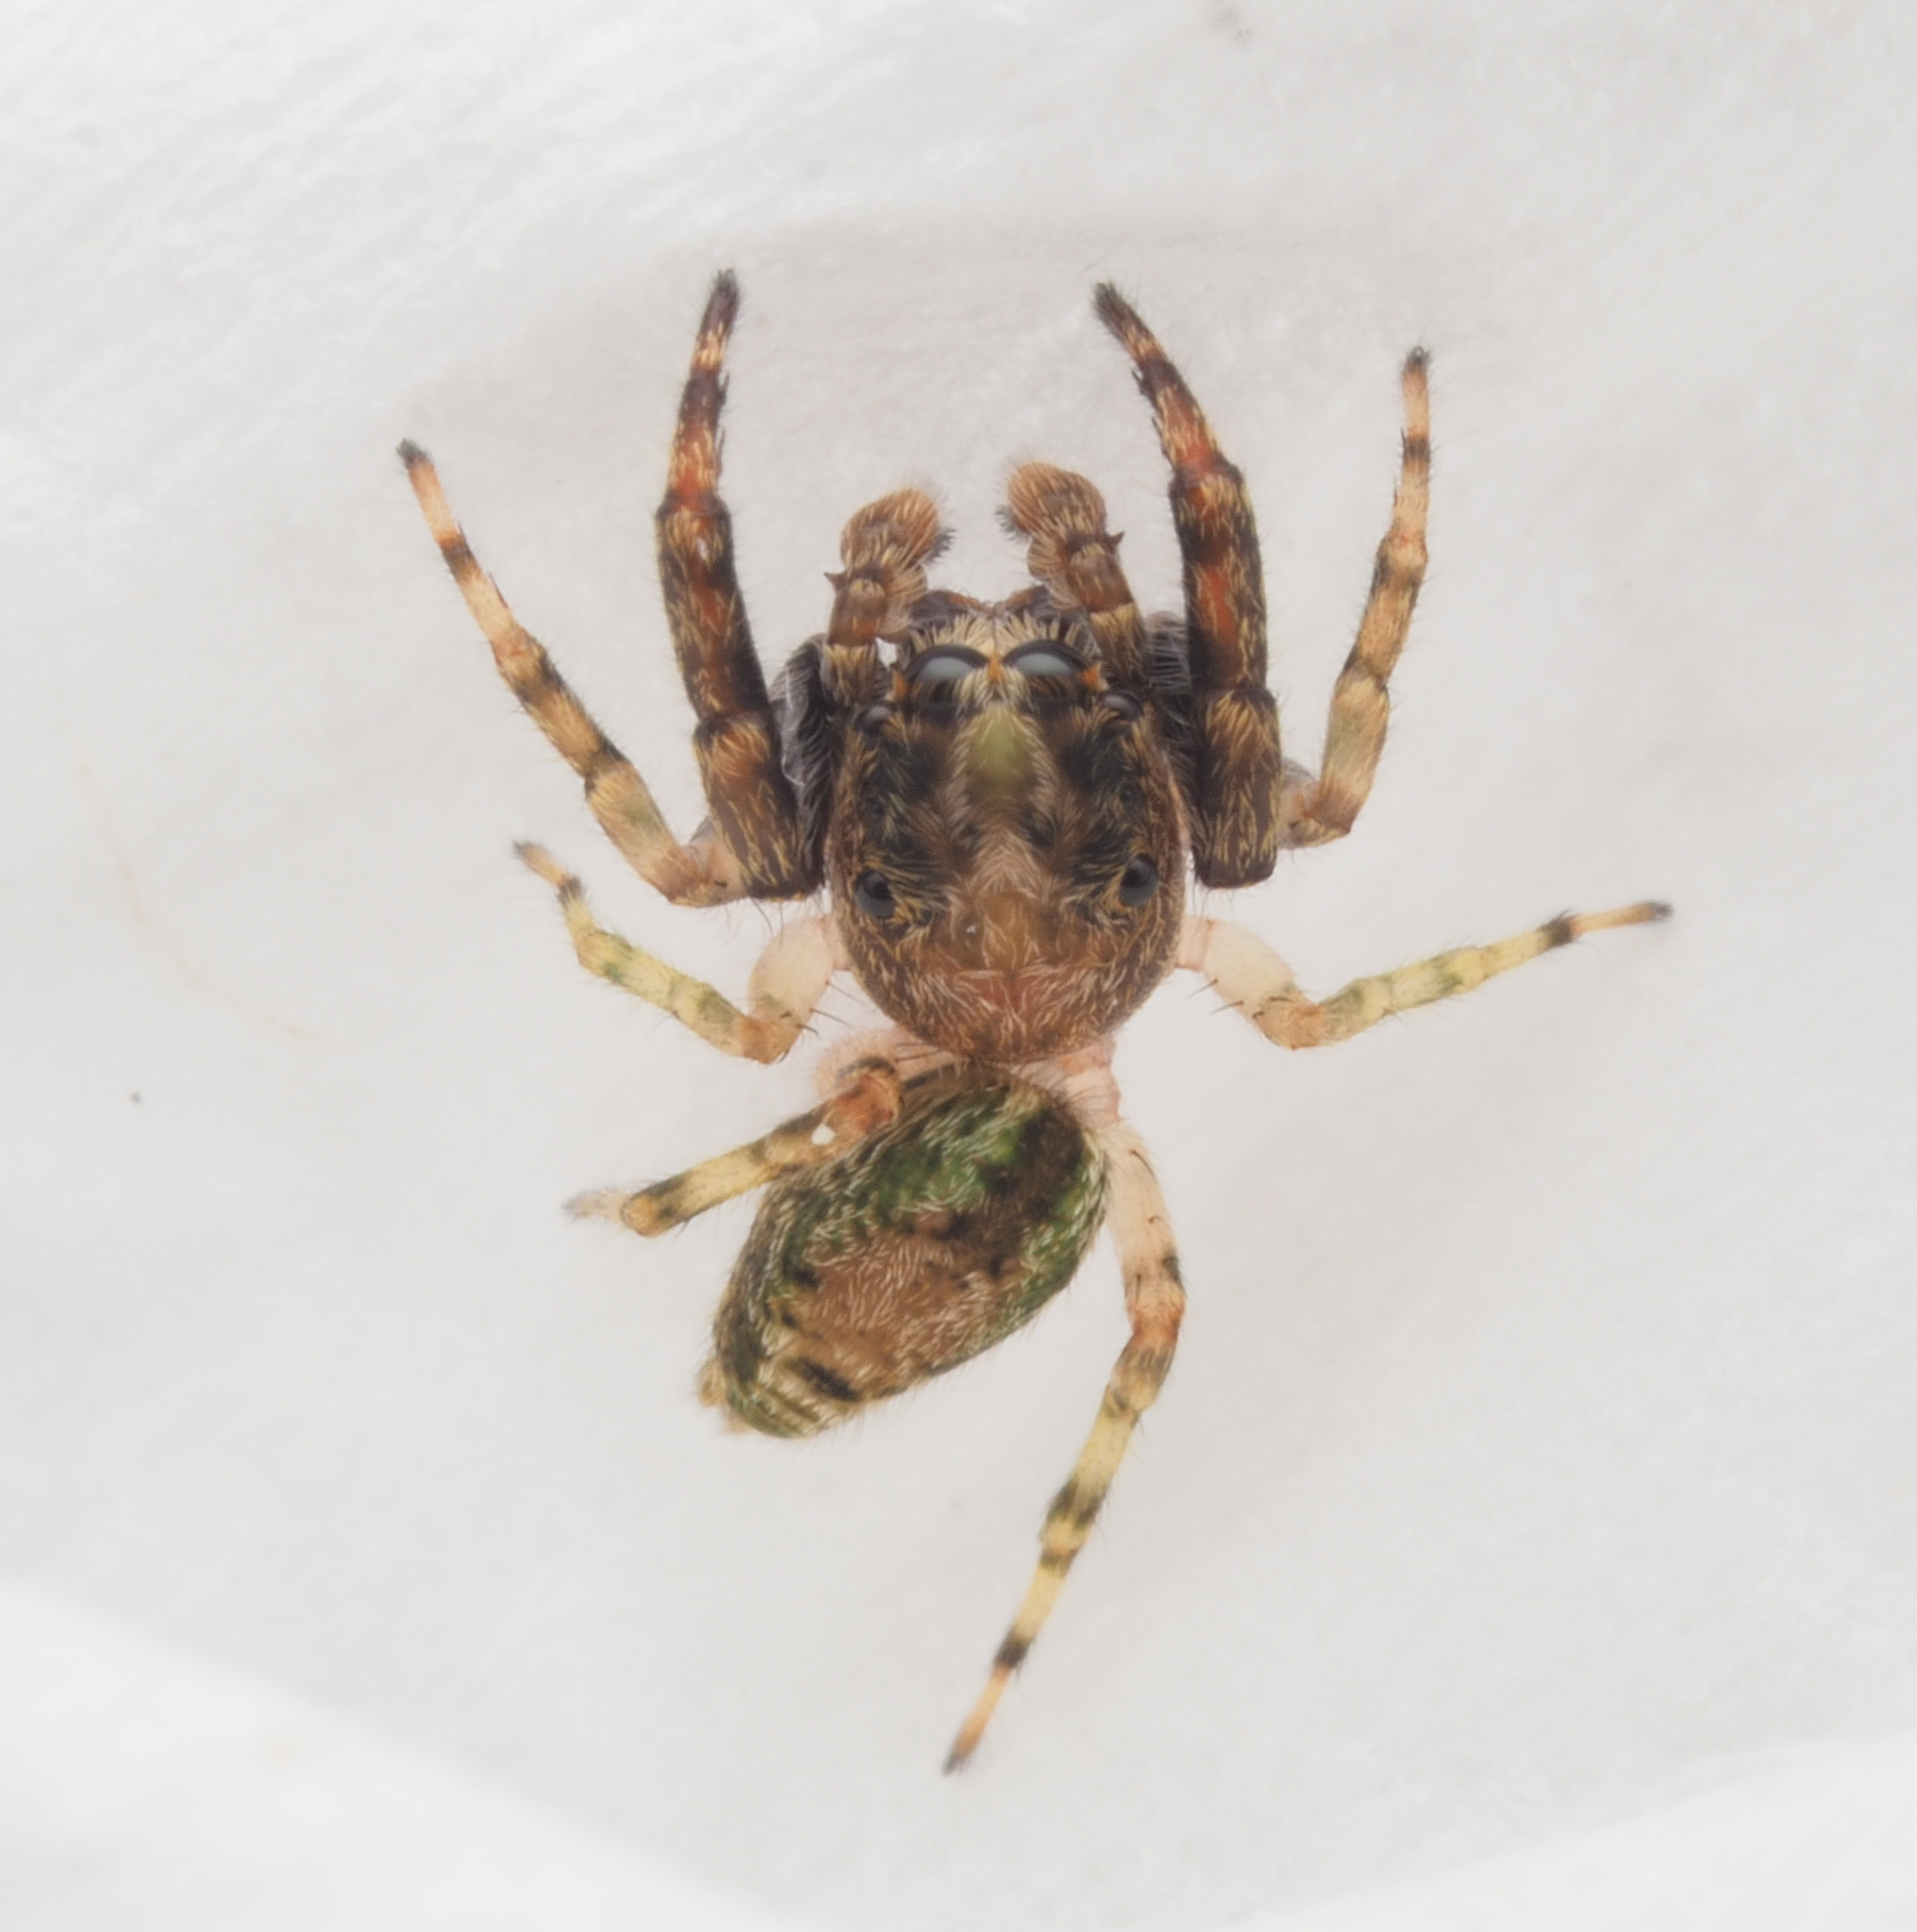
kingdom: Animalia
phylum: Arthropoda
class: Arachnida
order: Araneae
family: Salticidae
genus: Apricia
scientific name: Apricia
